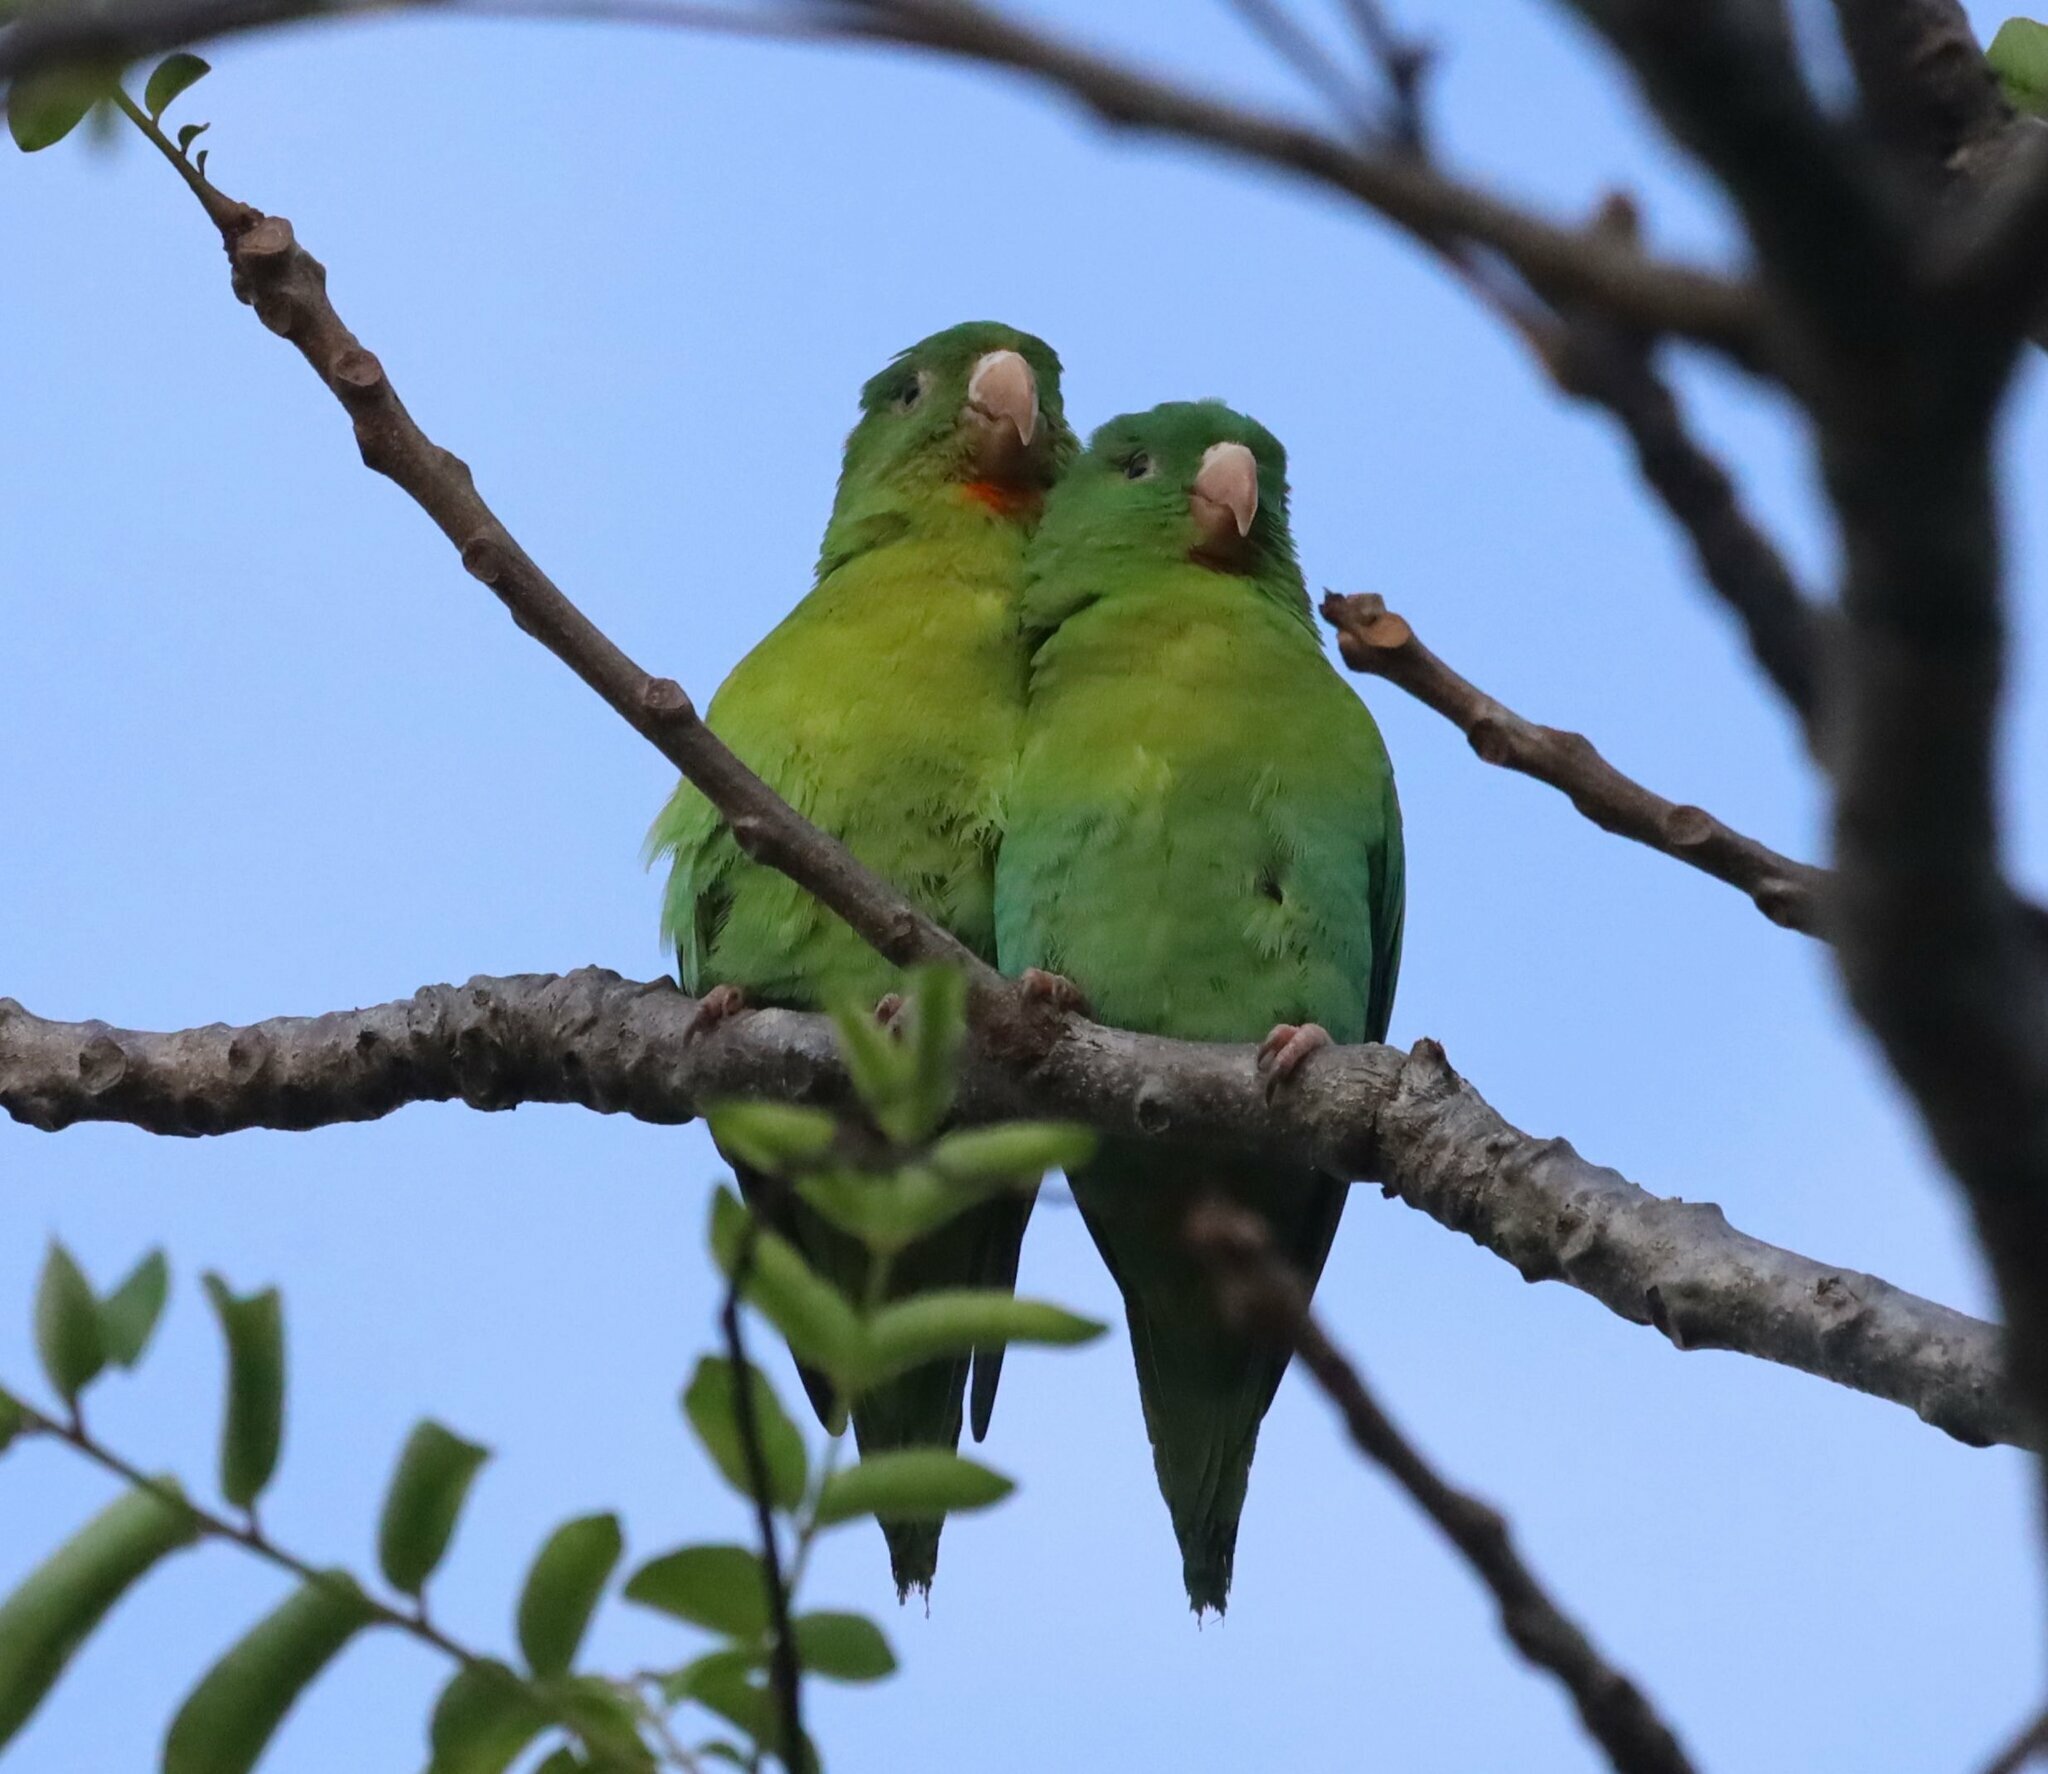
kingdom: Animalia
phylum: Chordata
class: Aves
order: Psittaciformes
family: Psittacidae
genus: Brotogeris
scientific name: Brotogeris jugularis
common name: Orange-chinned parakeet
